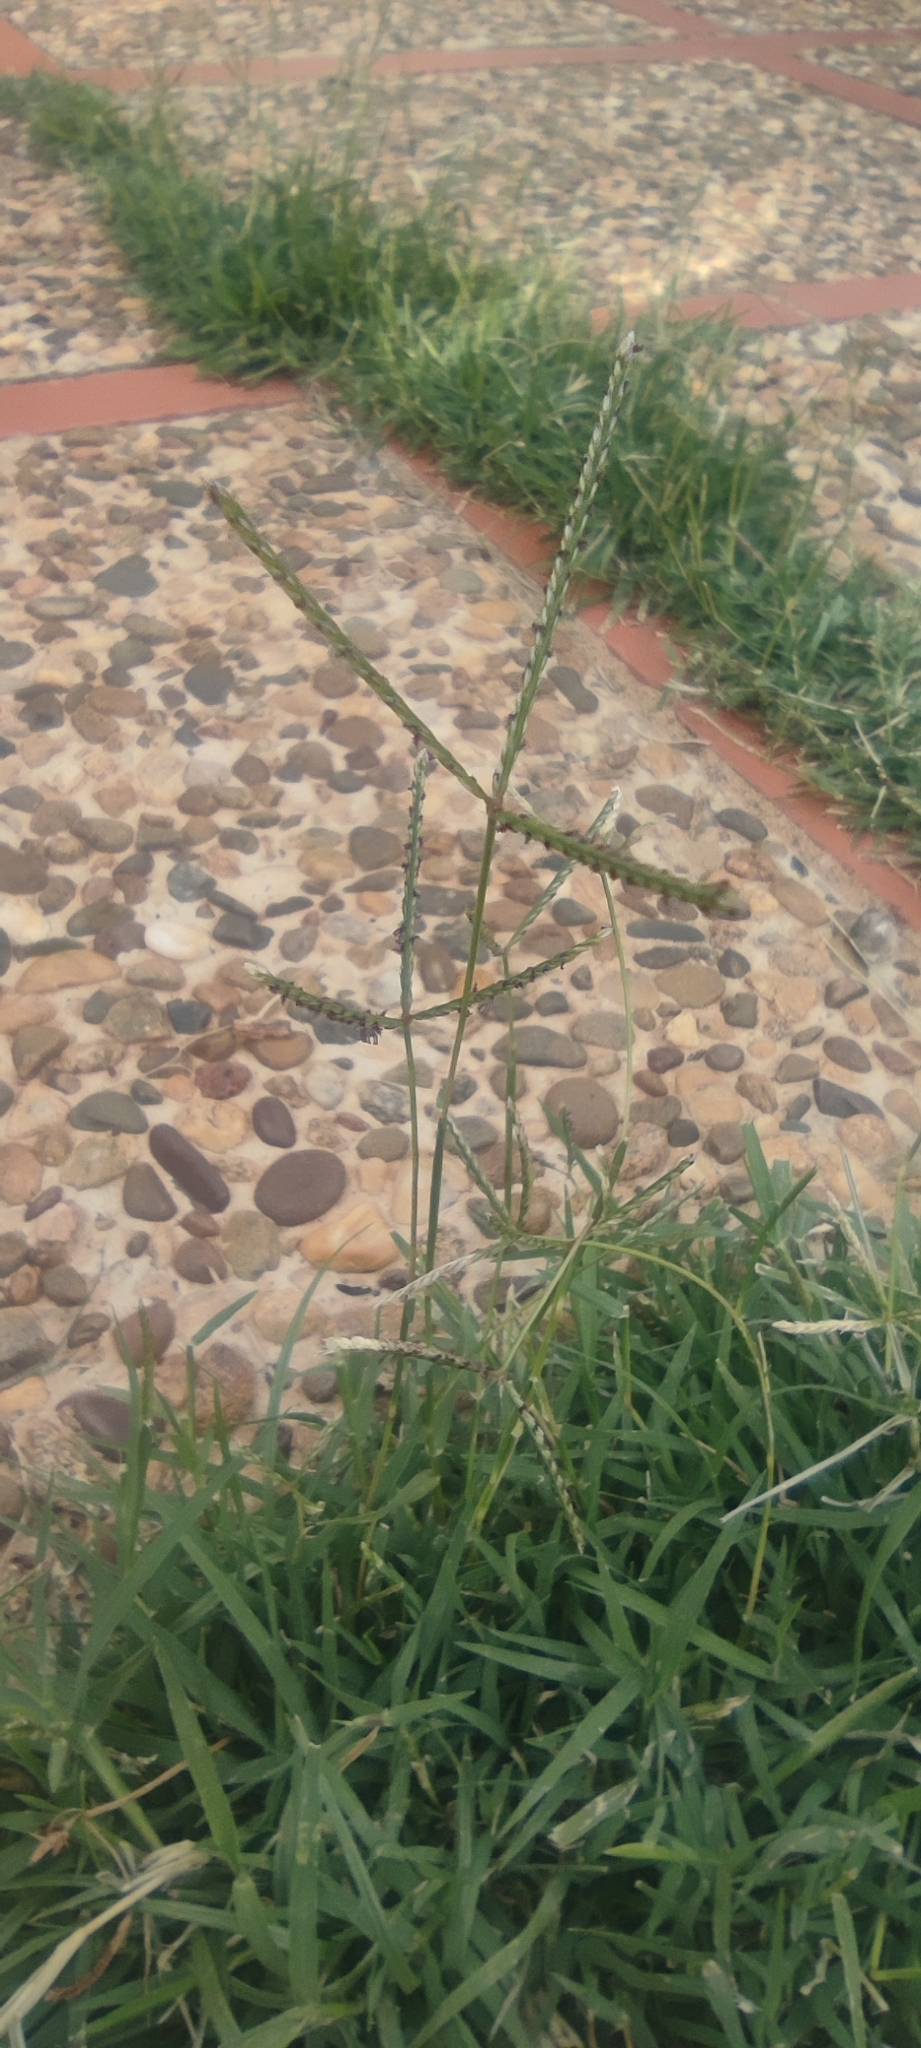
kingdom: Plantae
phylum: Tracheophyta
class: Liliopsida
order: Poales
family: Poaceae
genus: Cynodon
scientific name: Cynodon dactylon
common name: Bermuda grass
